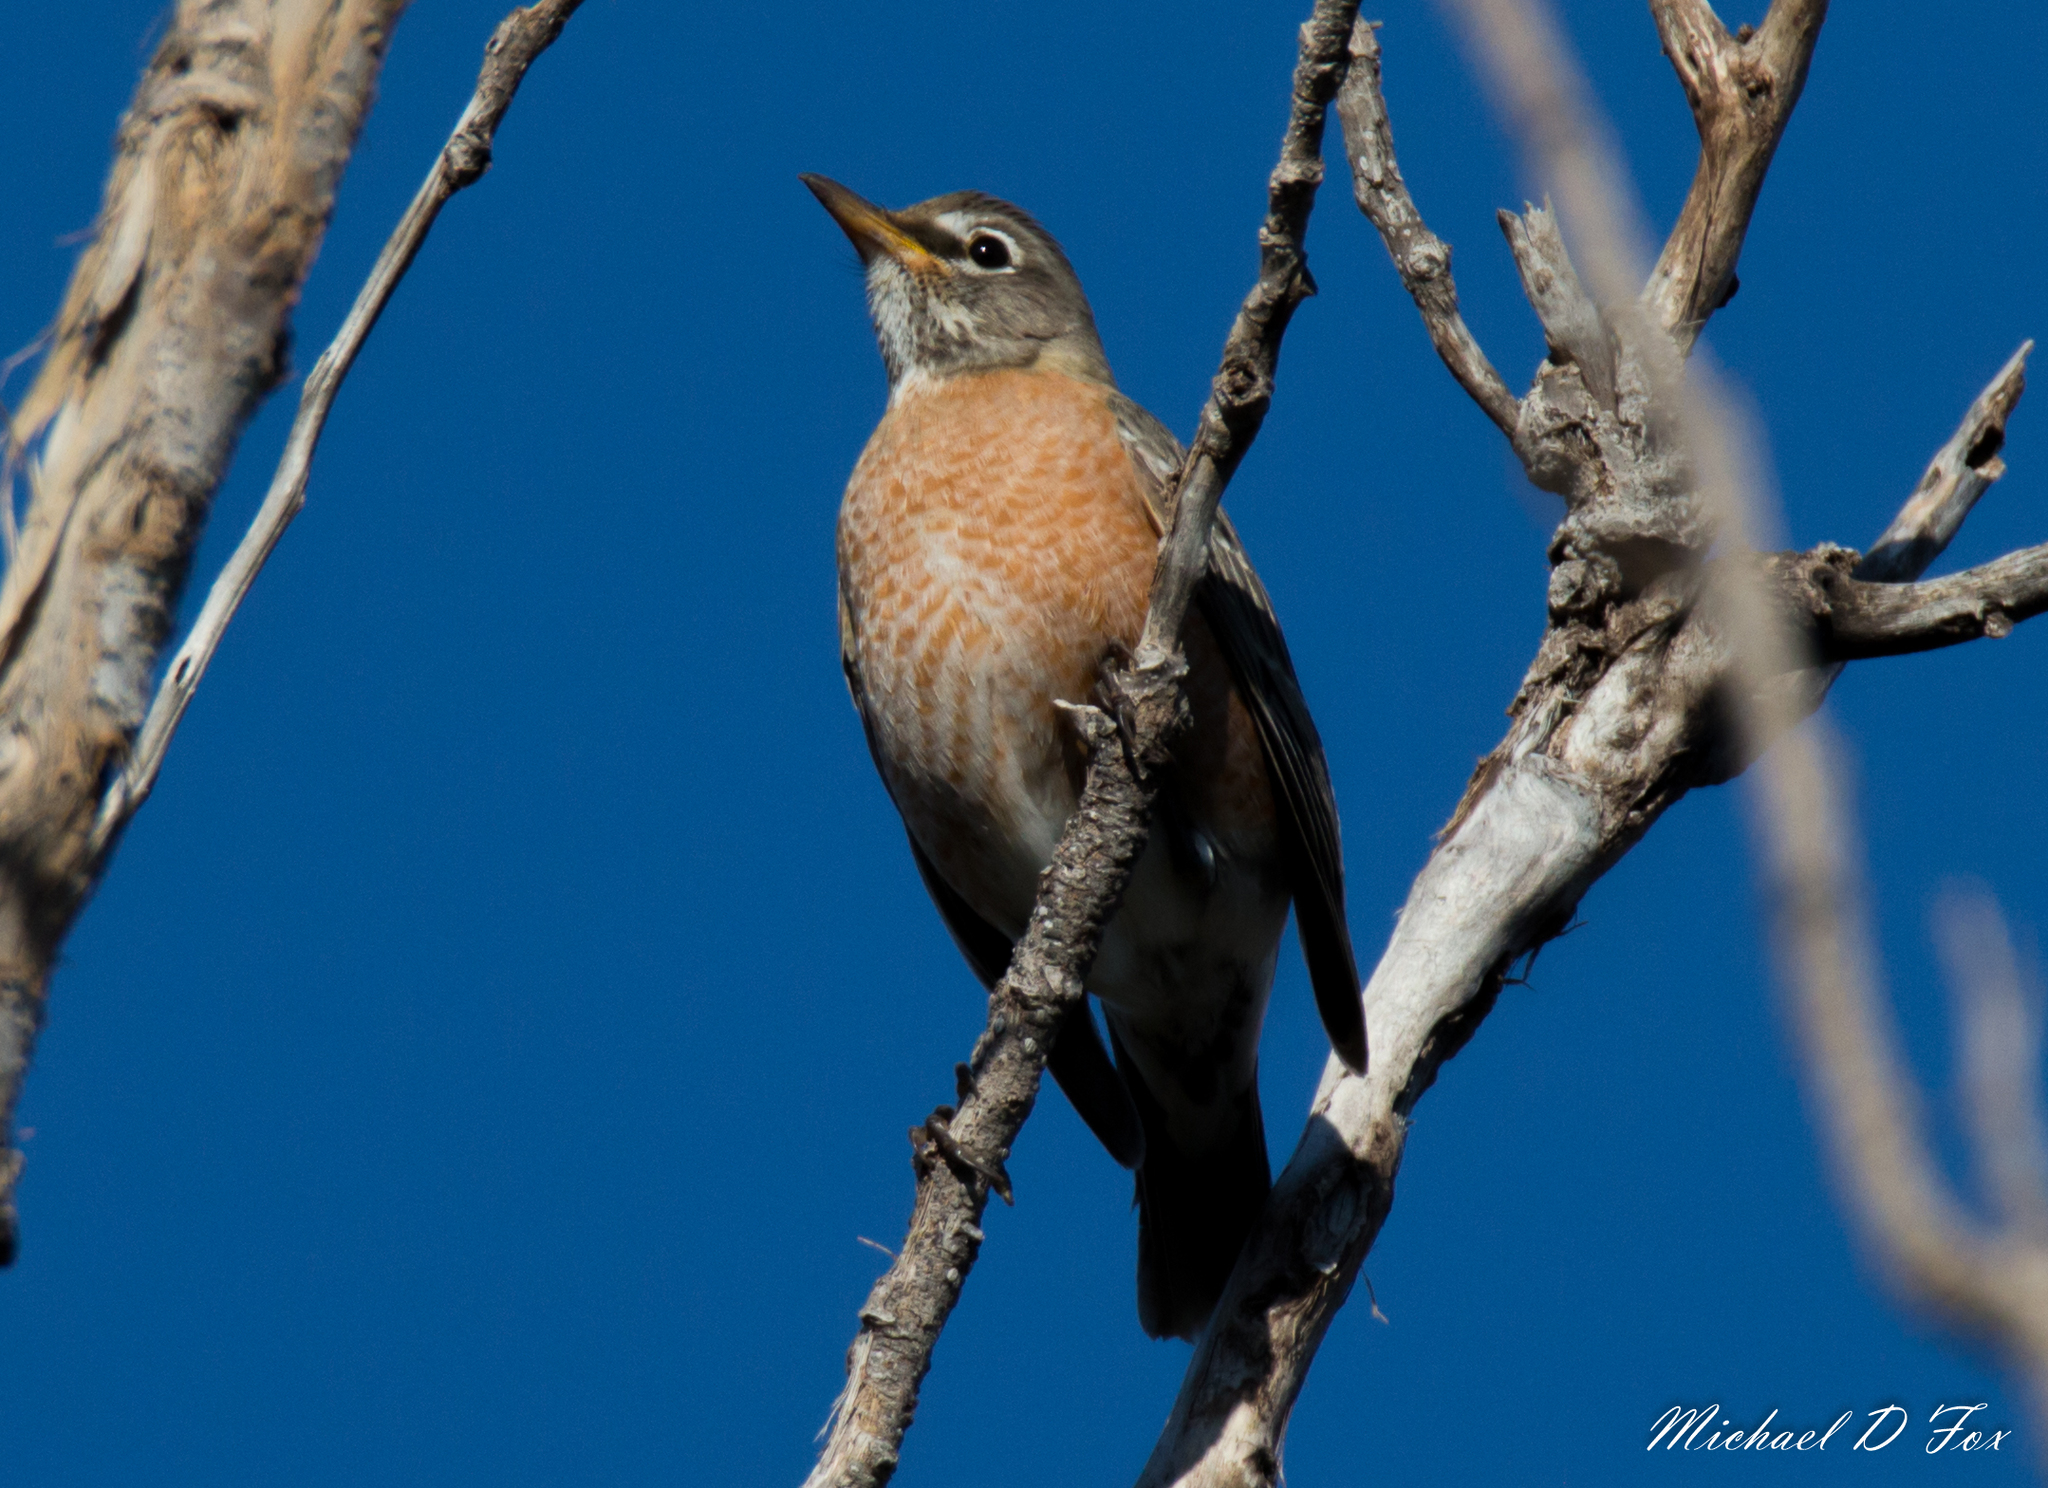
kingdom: Animalia
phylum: Chordata
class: Aves
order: Passeriformes
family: Turdidae
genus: Turdus
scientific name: Turdus migratorius
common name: American robin
